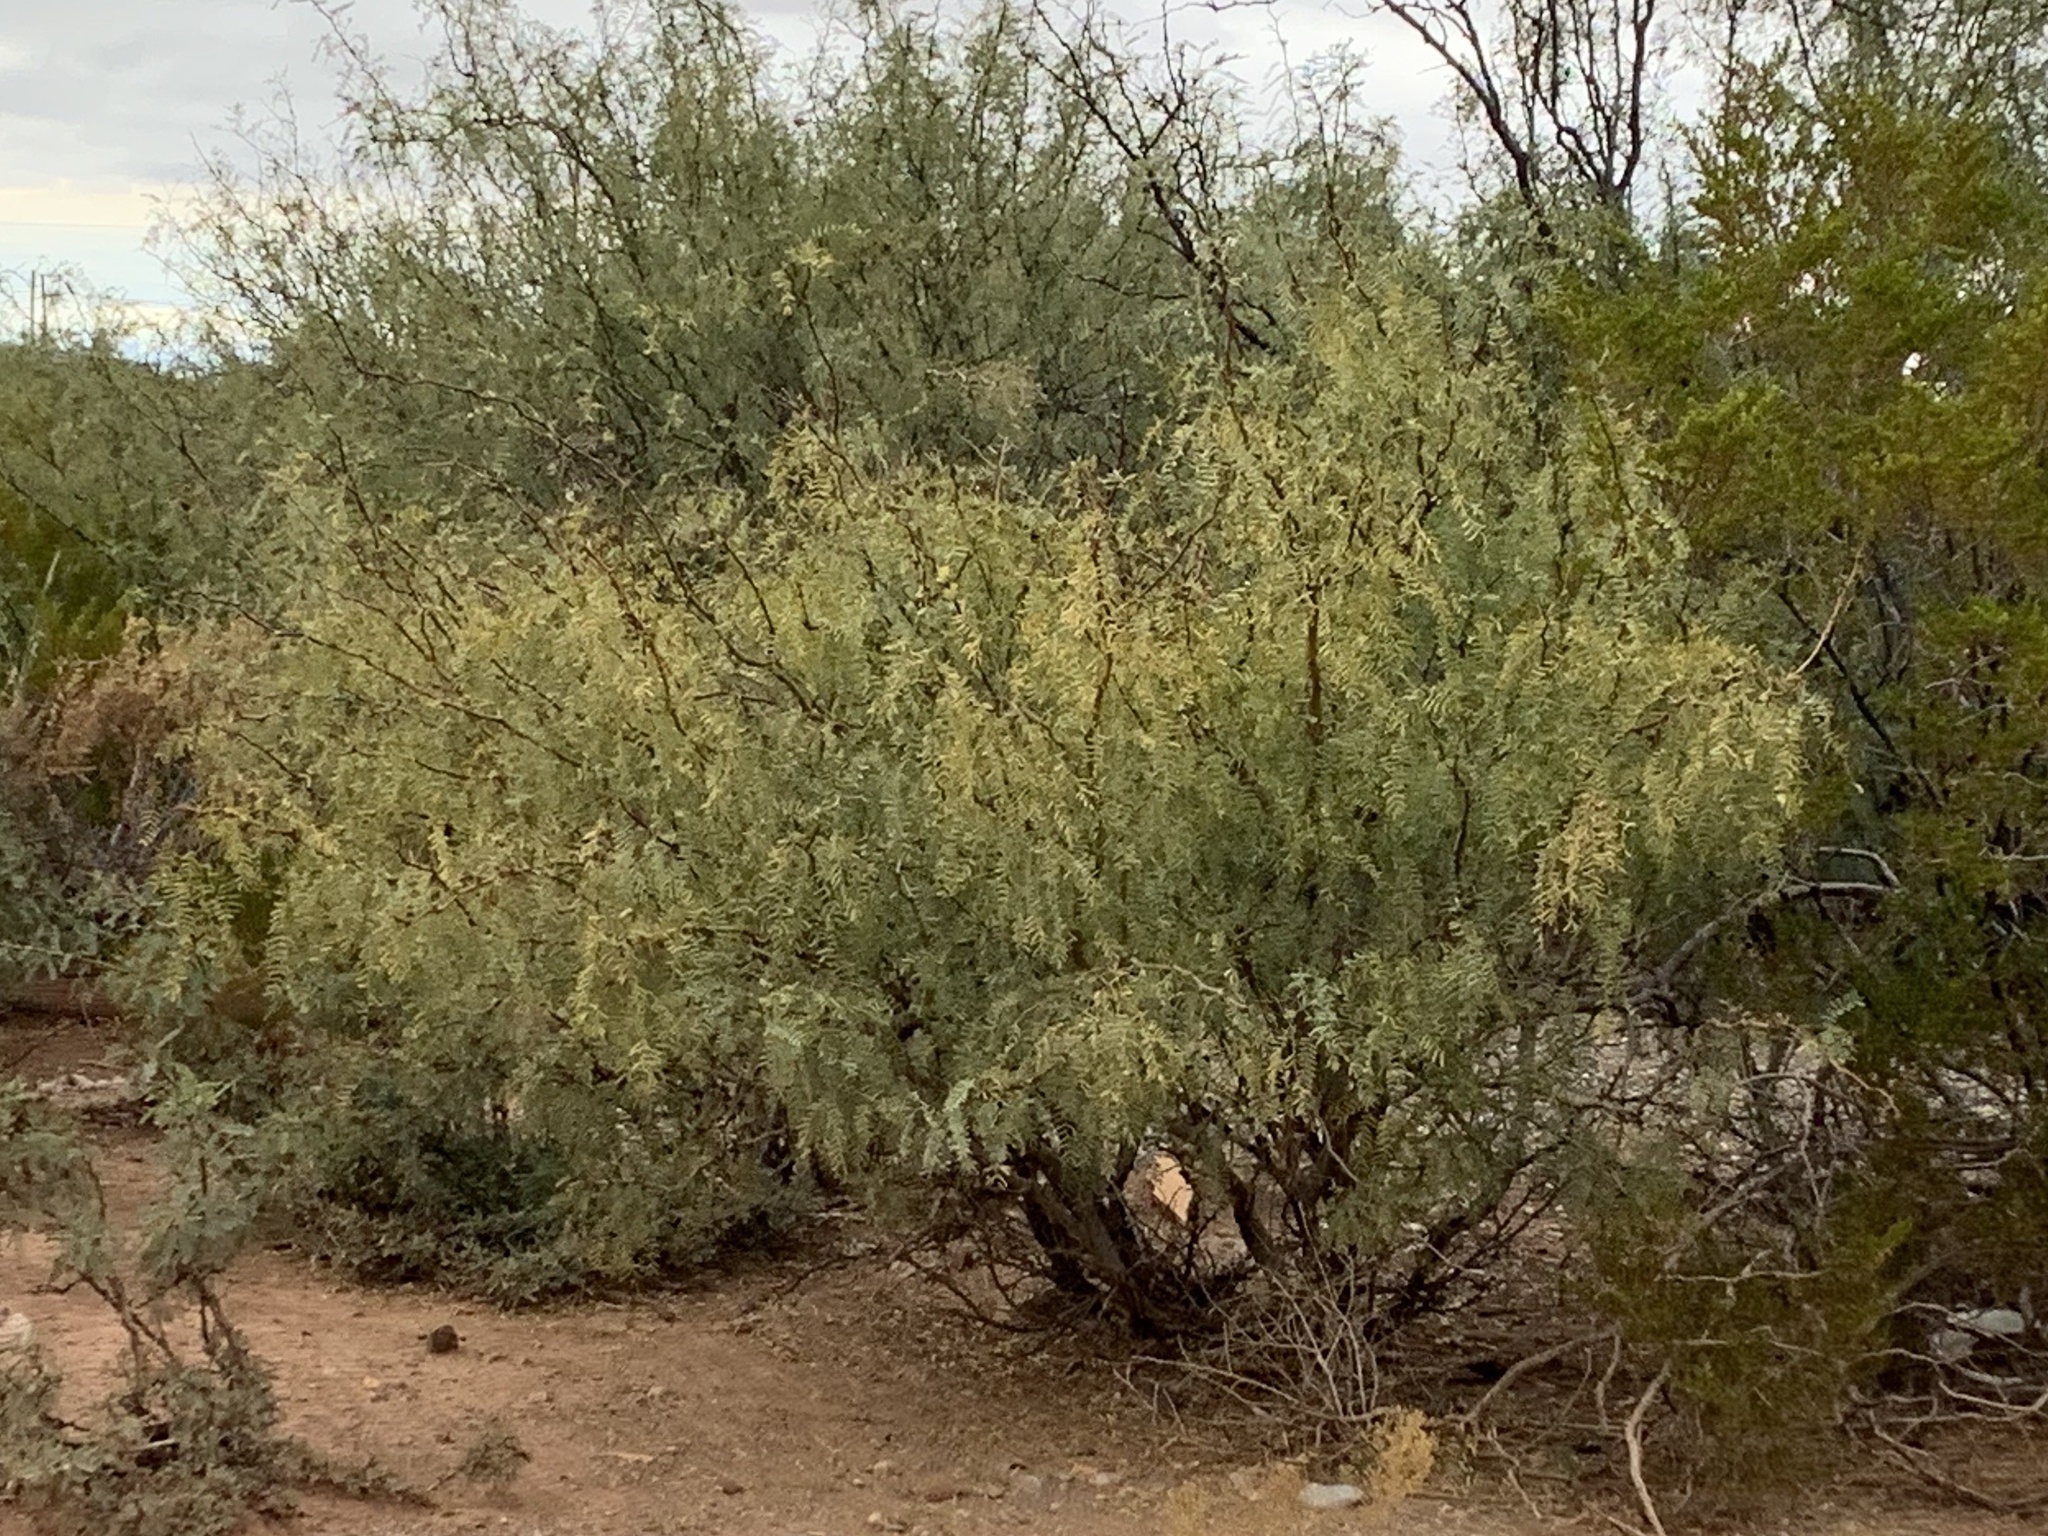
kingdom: Plantae
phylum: Tracheophyta
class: Magnoliopsida
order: Fabales
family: Fabaceae
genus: Prosopis
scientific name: Prosopis glandulosa
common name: Honey mesquite
